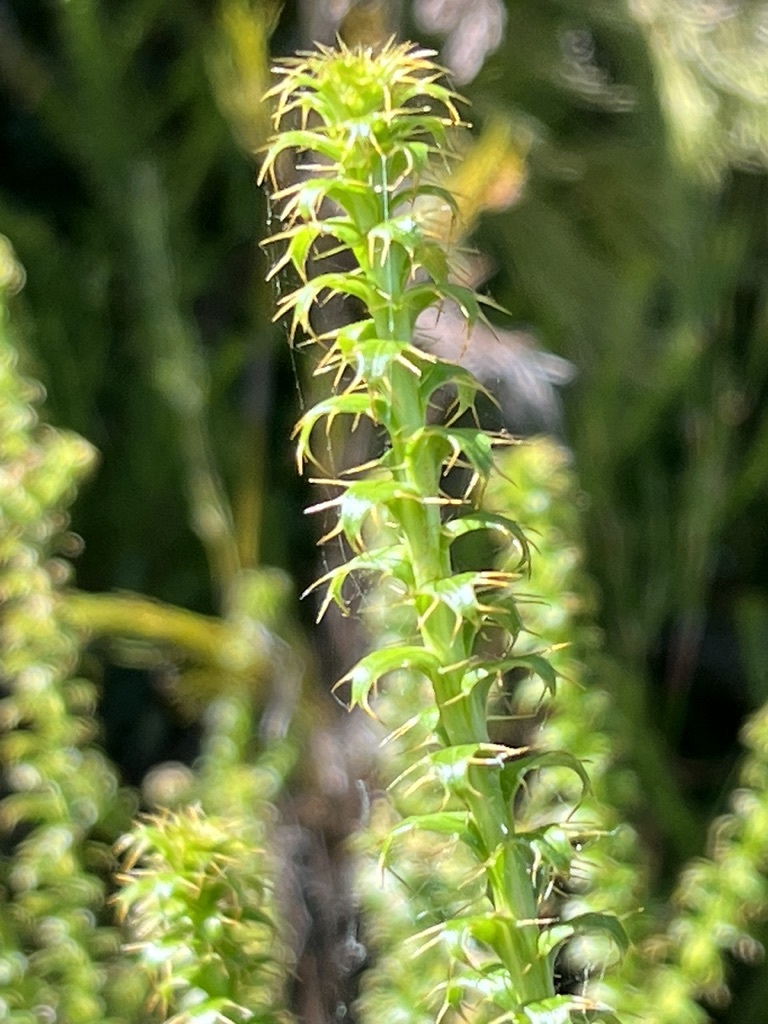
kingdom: Plantae
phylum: Tracheophyta
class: Magnoliopsida
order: Asterales
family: Asteraceae
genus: Cullumia
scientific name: Cullumia setosa
